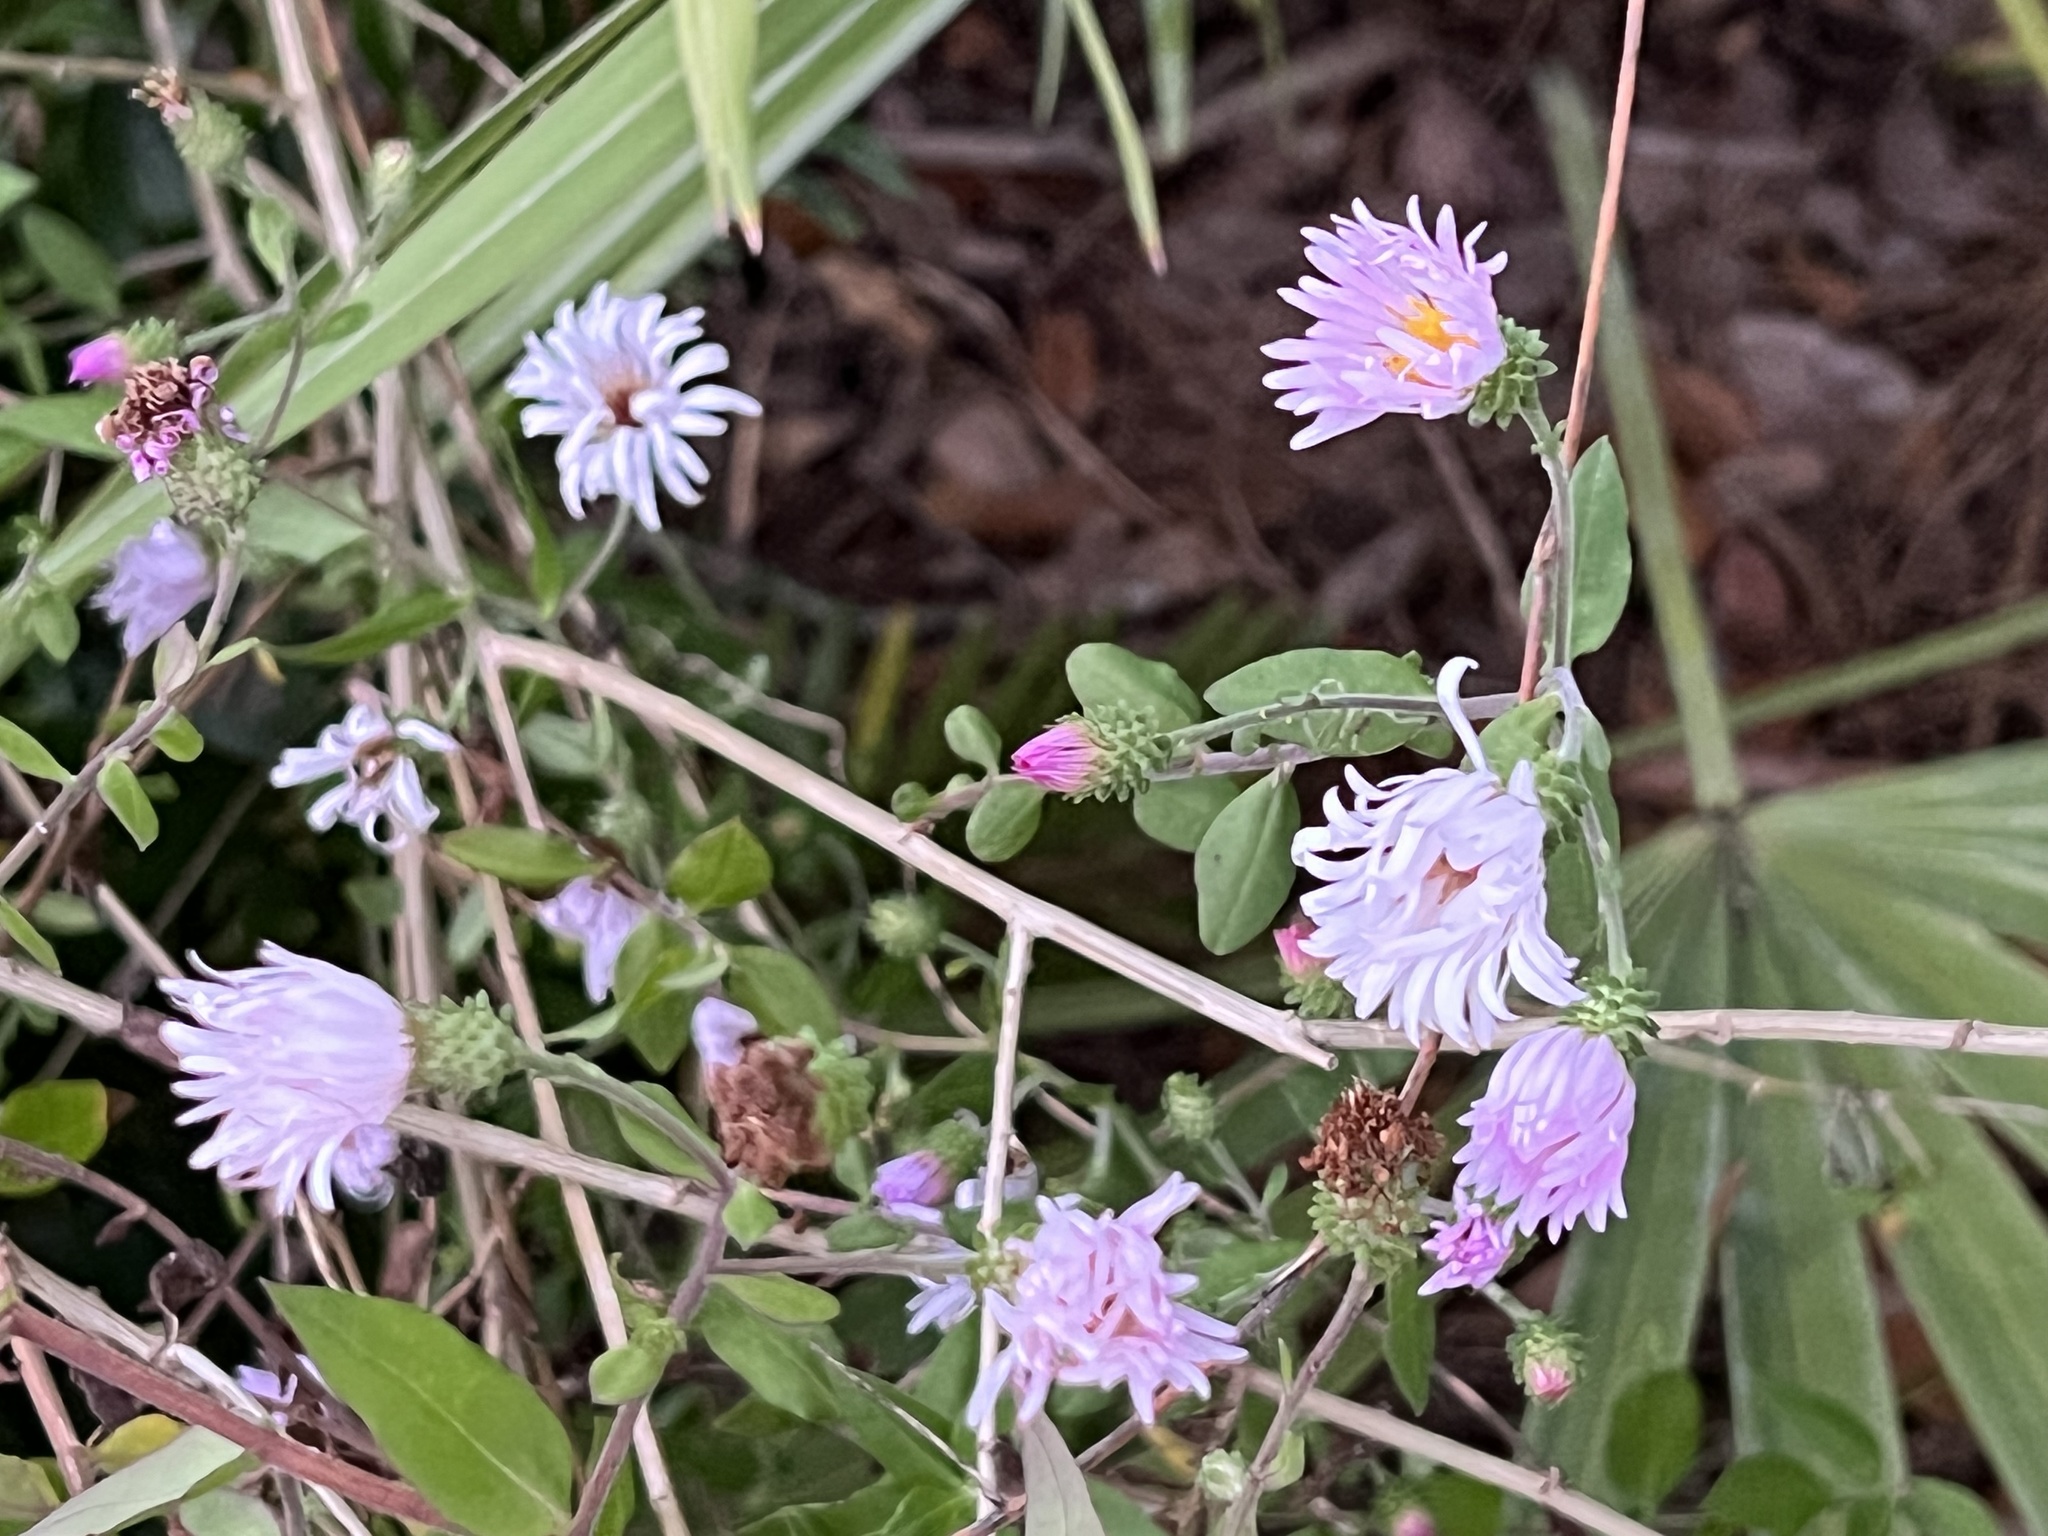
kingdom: Plantae
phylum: Tracheophyta
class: Magnoliopsida
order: Asterales
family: Asteraceae
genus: Ampelaster
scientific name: Ampelaster carolinianus
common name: Climbing aster
